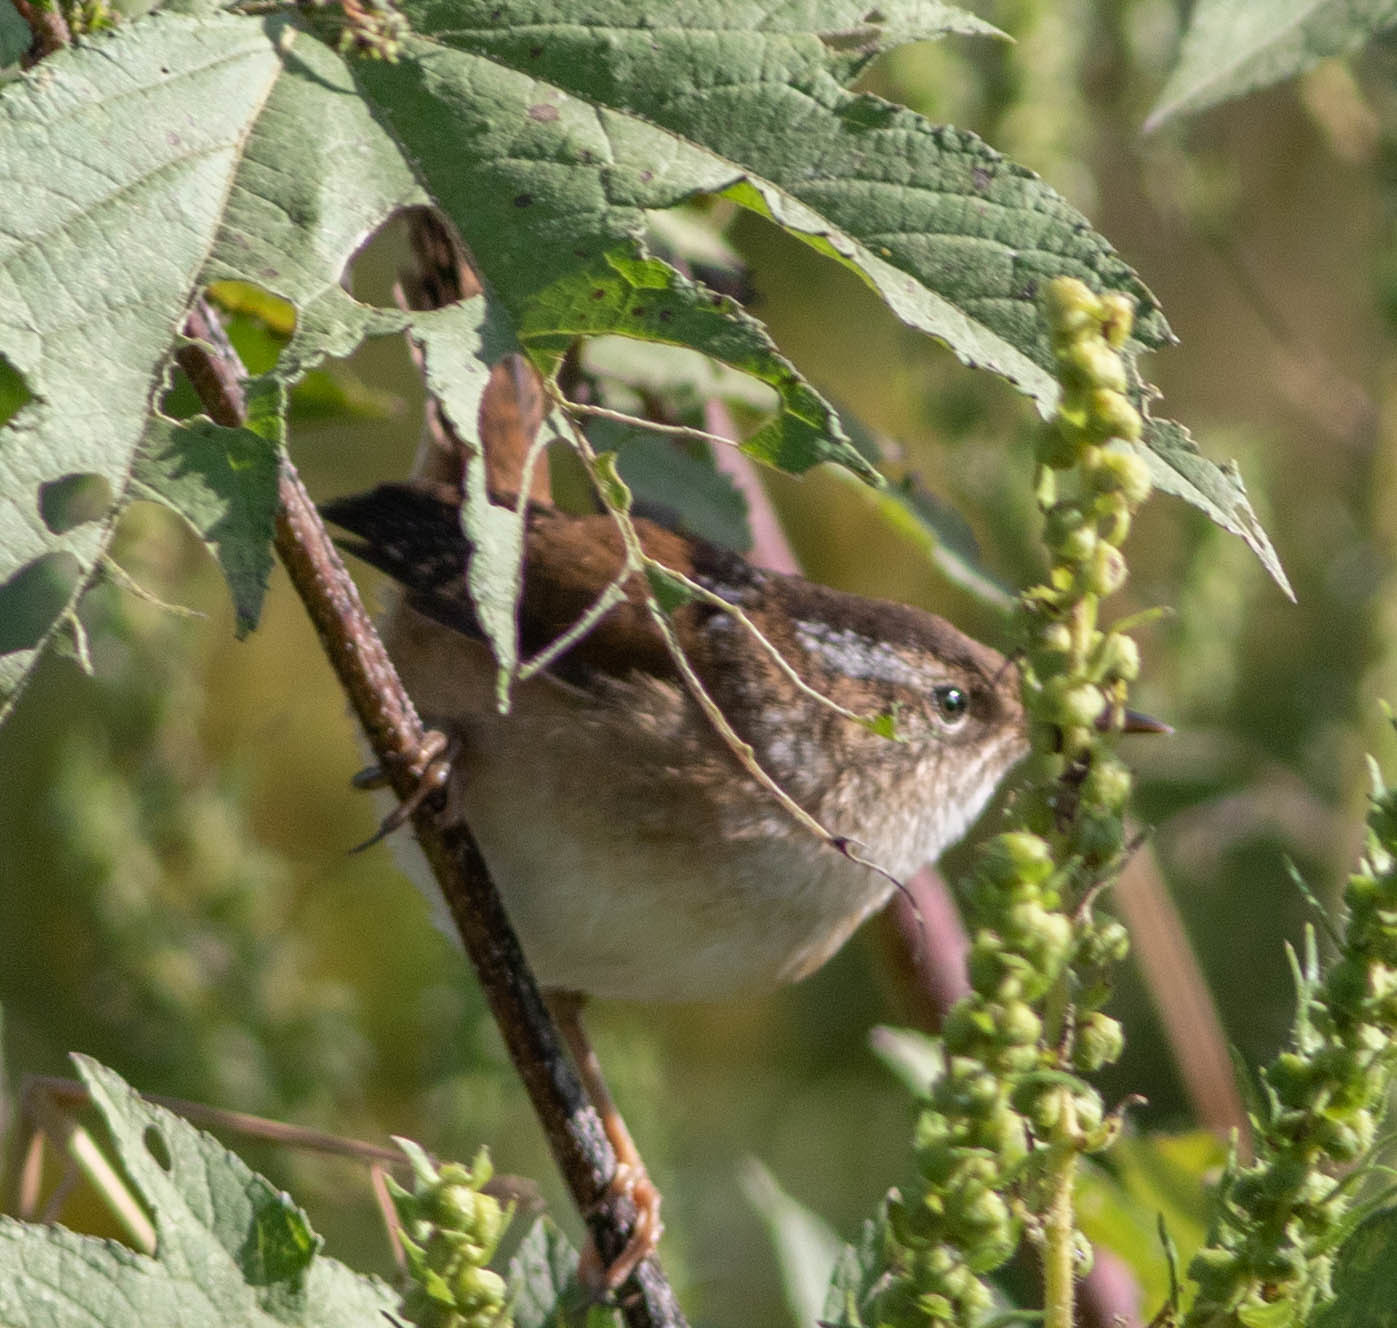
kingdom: Animalia
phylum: Chordata
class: Aves
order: Passeriformes
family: Troglodytidae
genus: Cistothorus
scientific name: Cistothorus palustris
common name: Marsh wren
